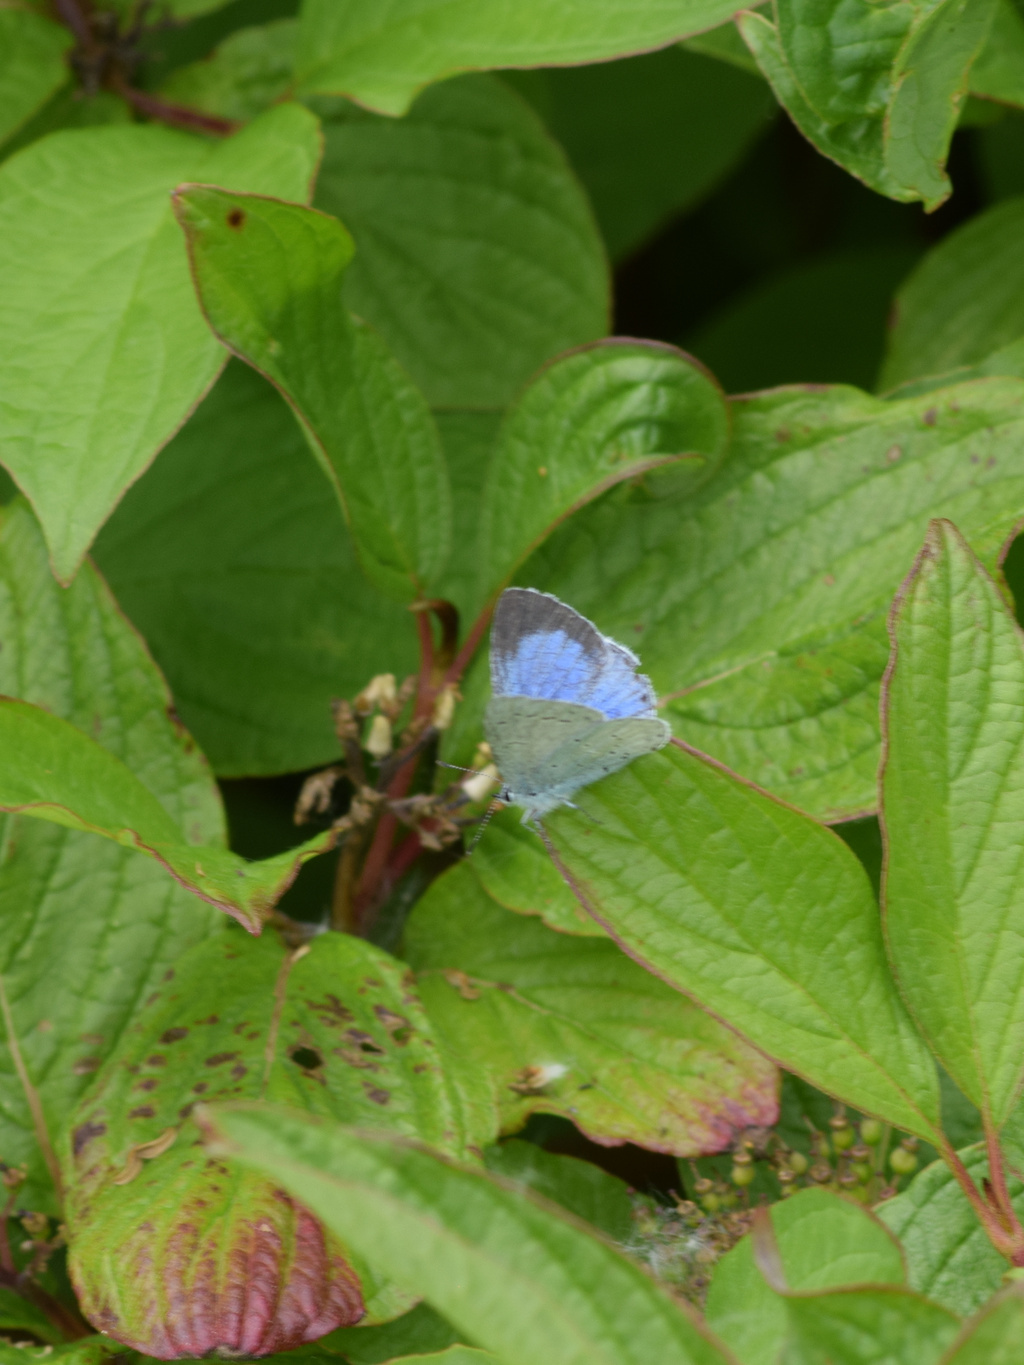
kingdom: Animalia
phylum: Arthropoda
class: Insecta
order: Lepidoptera
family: Lycaenidae
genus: Celastrina
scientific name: Celastrina argiolus
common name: Holly blue
